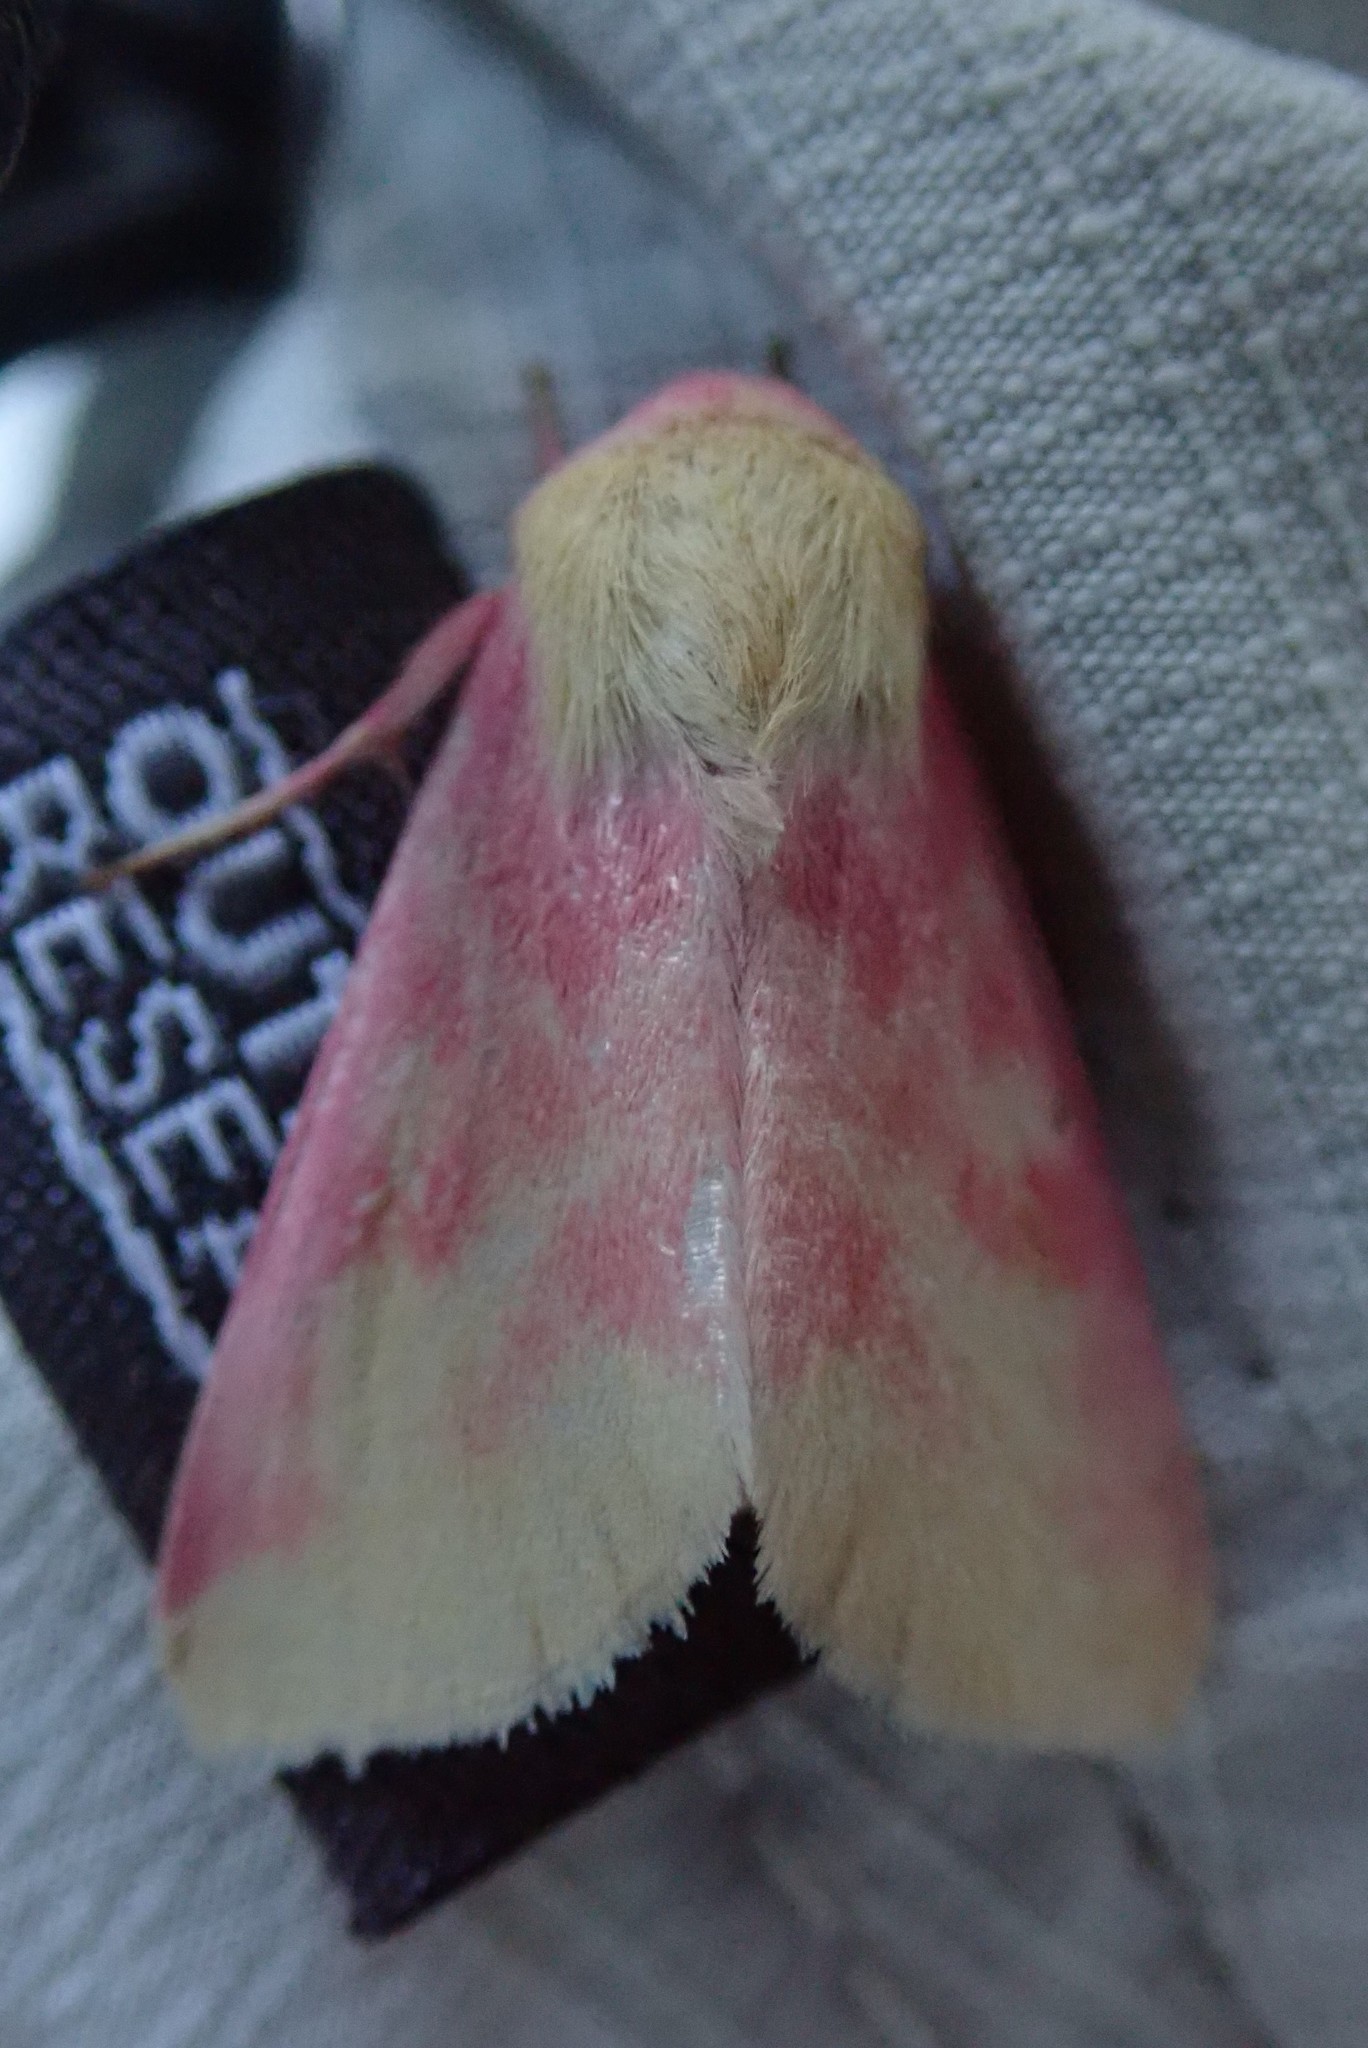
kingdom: Animalia
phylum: Arthropoda
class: Insecta
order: Lepidoptera
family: Noctuidae
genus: Schinia
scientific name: Schinia florida
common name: Primrose moth
